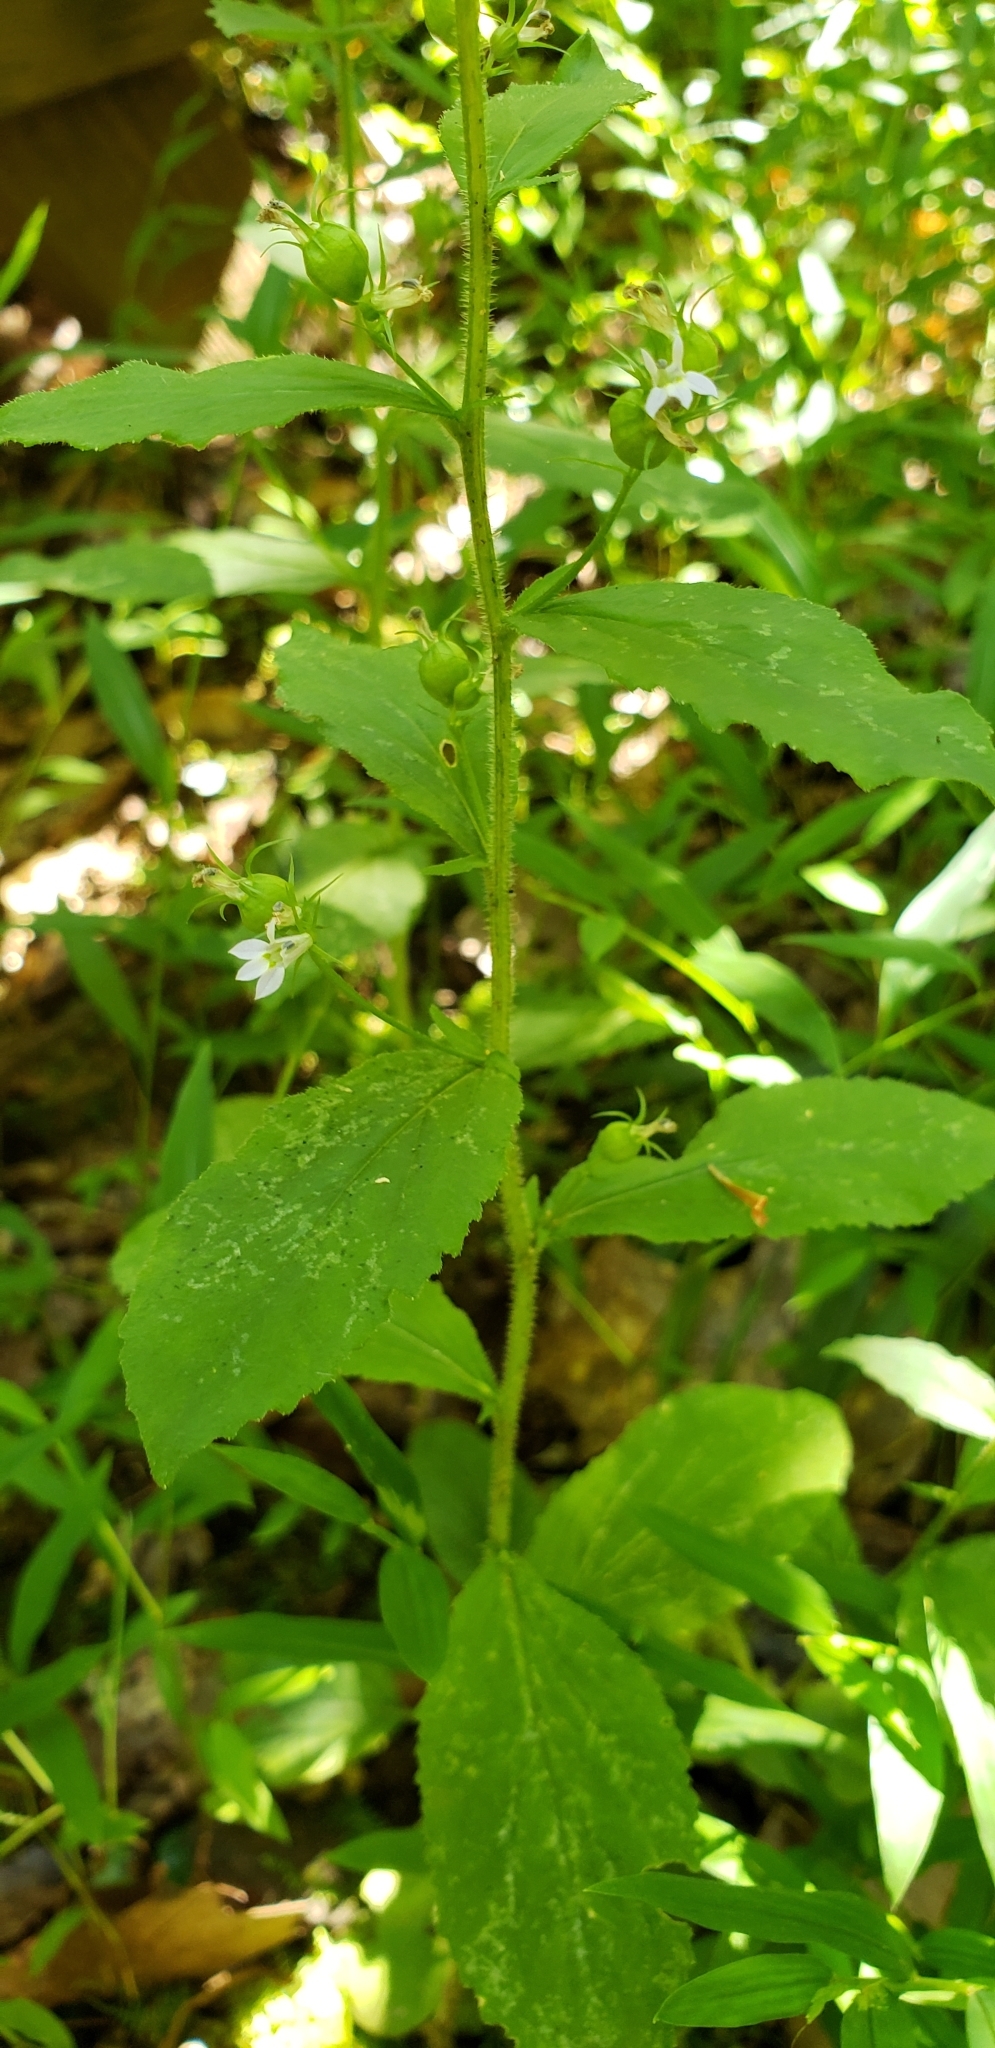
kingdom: Plantae
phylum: Tracheophyta
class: Magnoliopsida
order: Asterales
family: Campanulaceae
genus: Lobelia
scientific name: Lobelia inflata
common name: Indian tobacco
